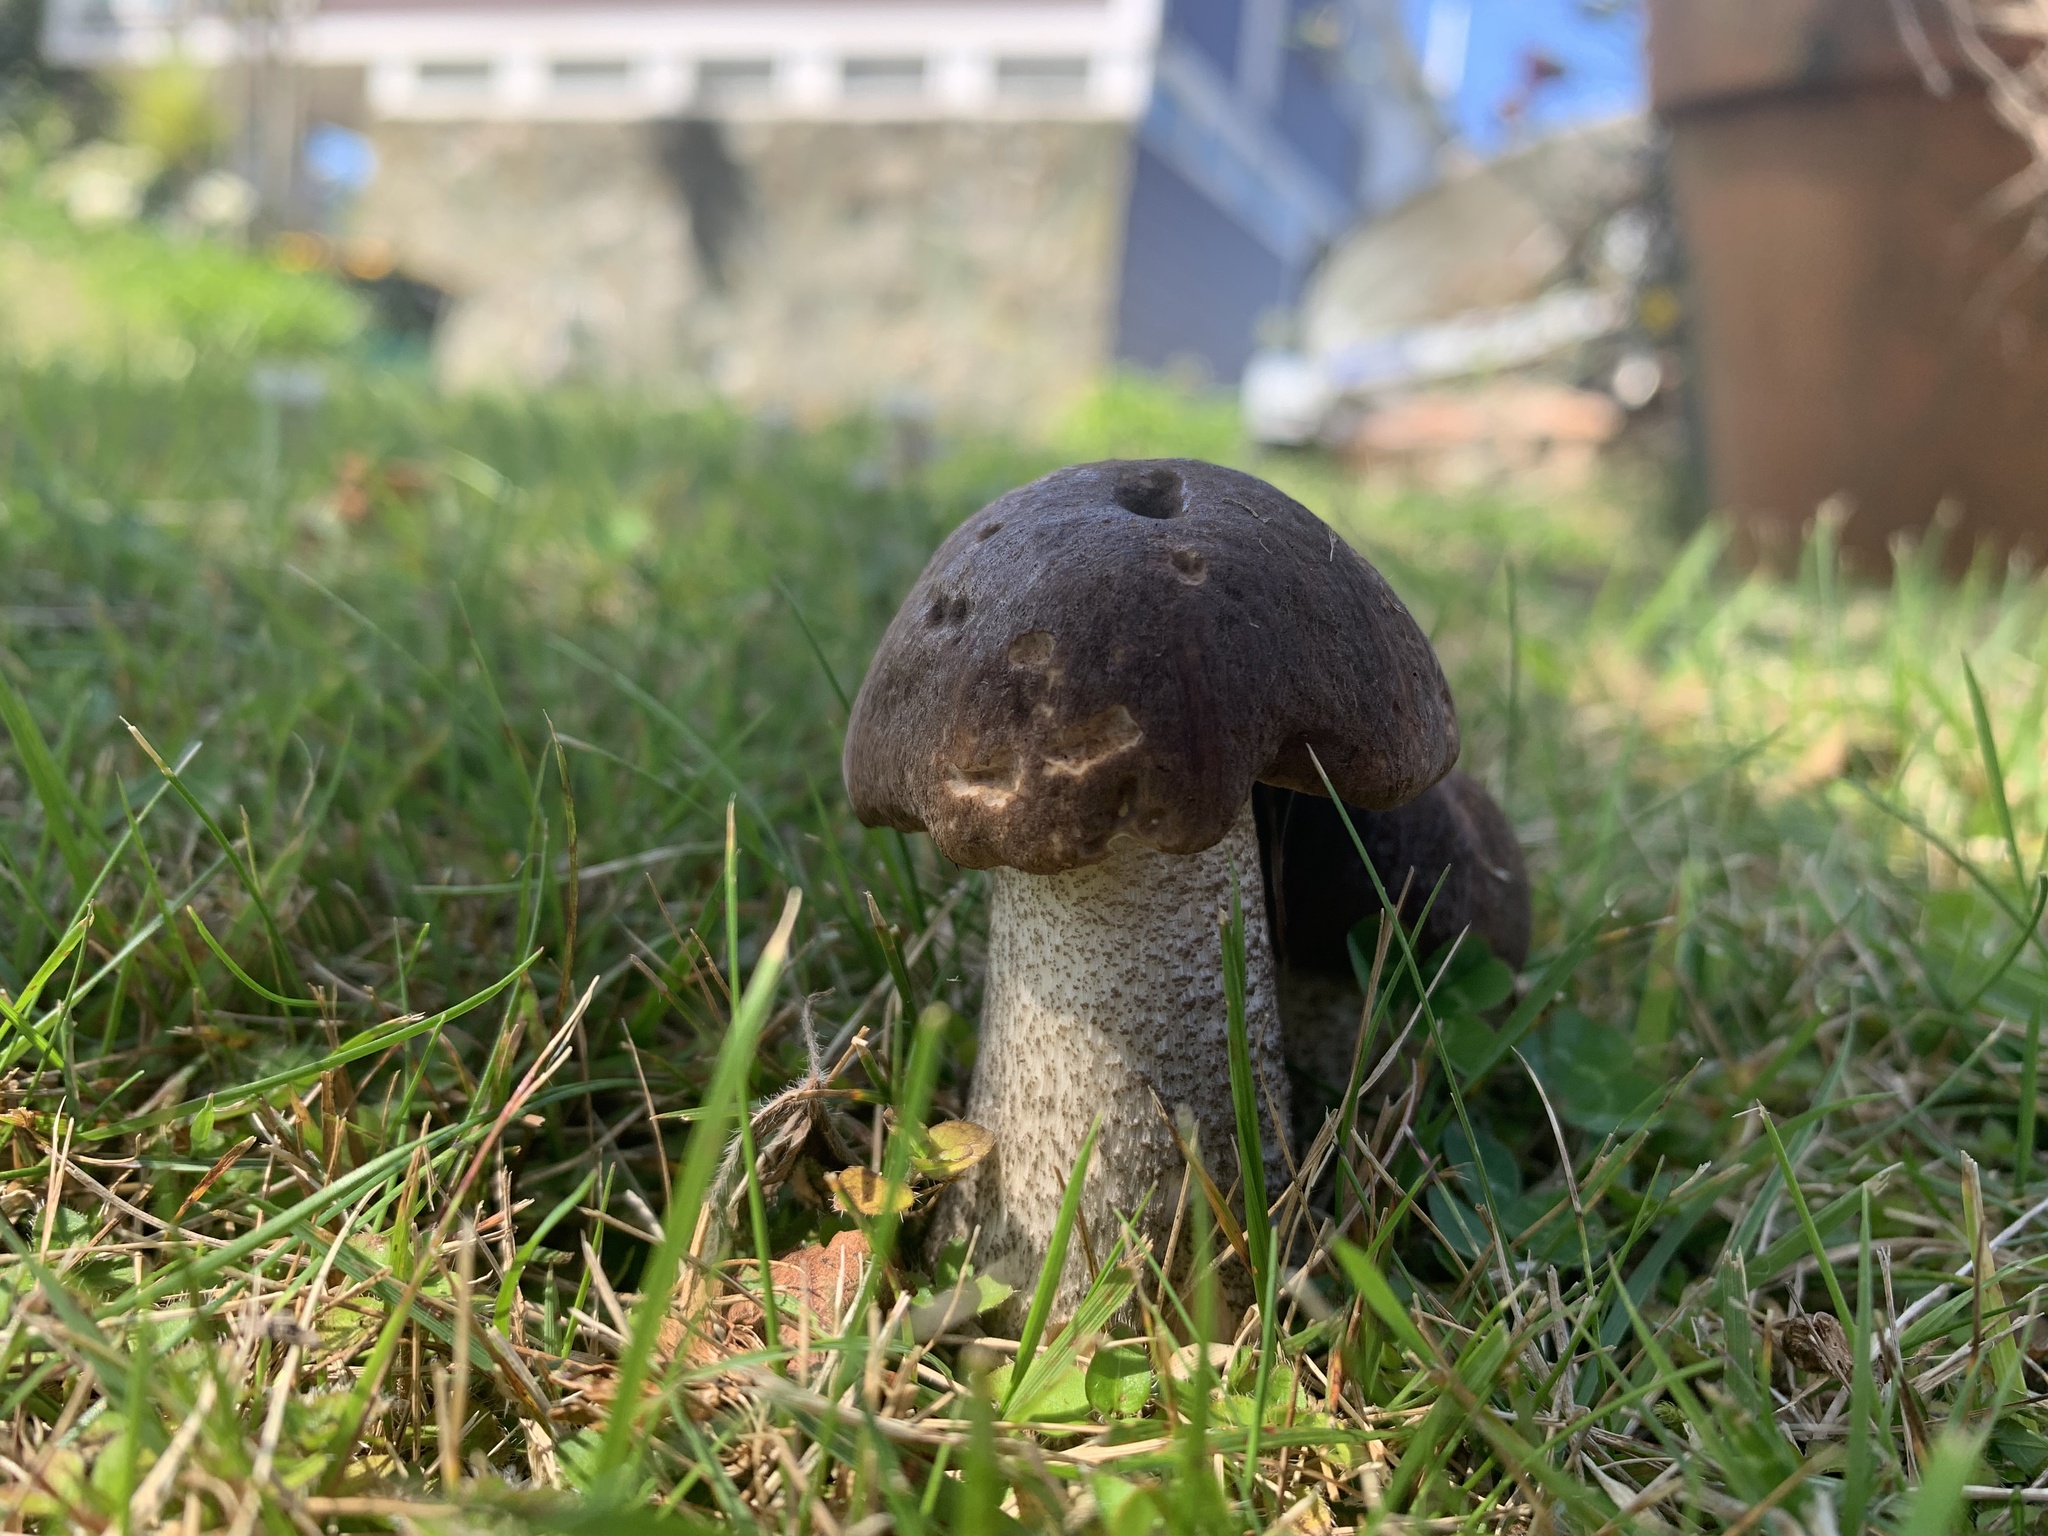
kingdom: Fungi
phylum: Basidiomycota
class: Agaricomycetes
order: Boletales
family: Boletaceae
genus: Leccinum
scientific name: Leccinum scabrum
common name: Blushing bolete
